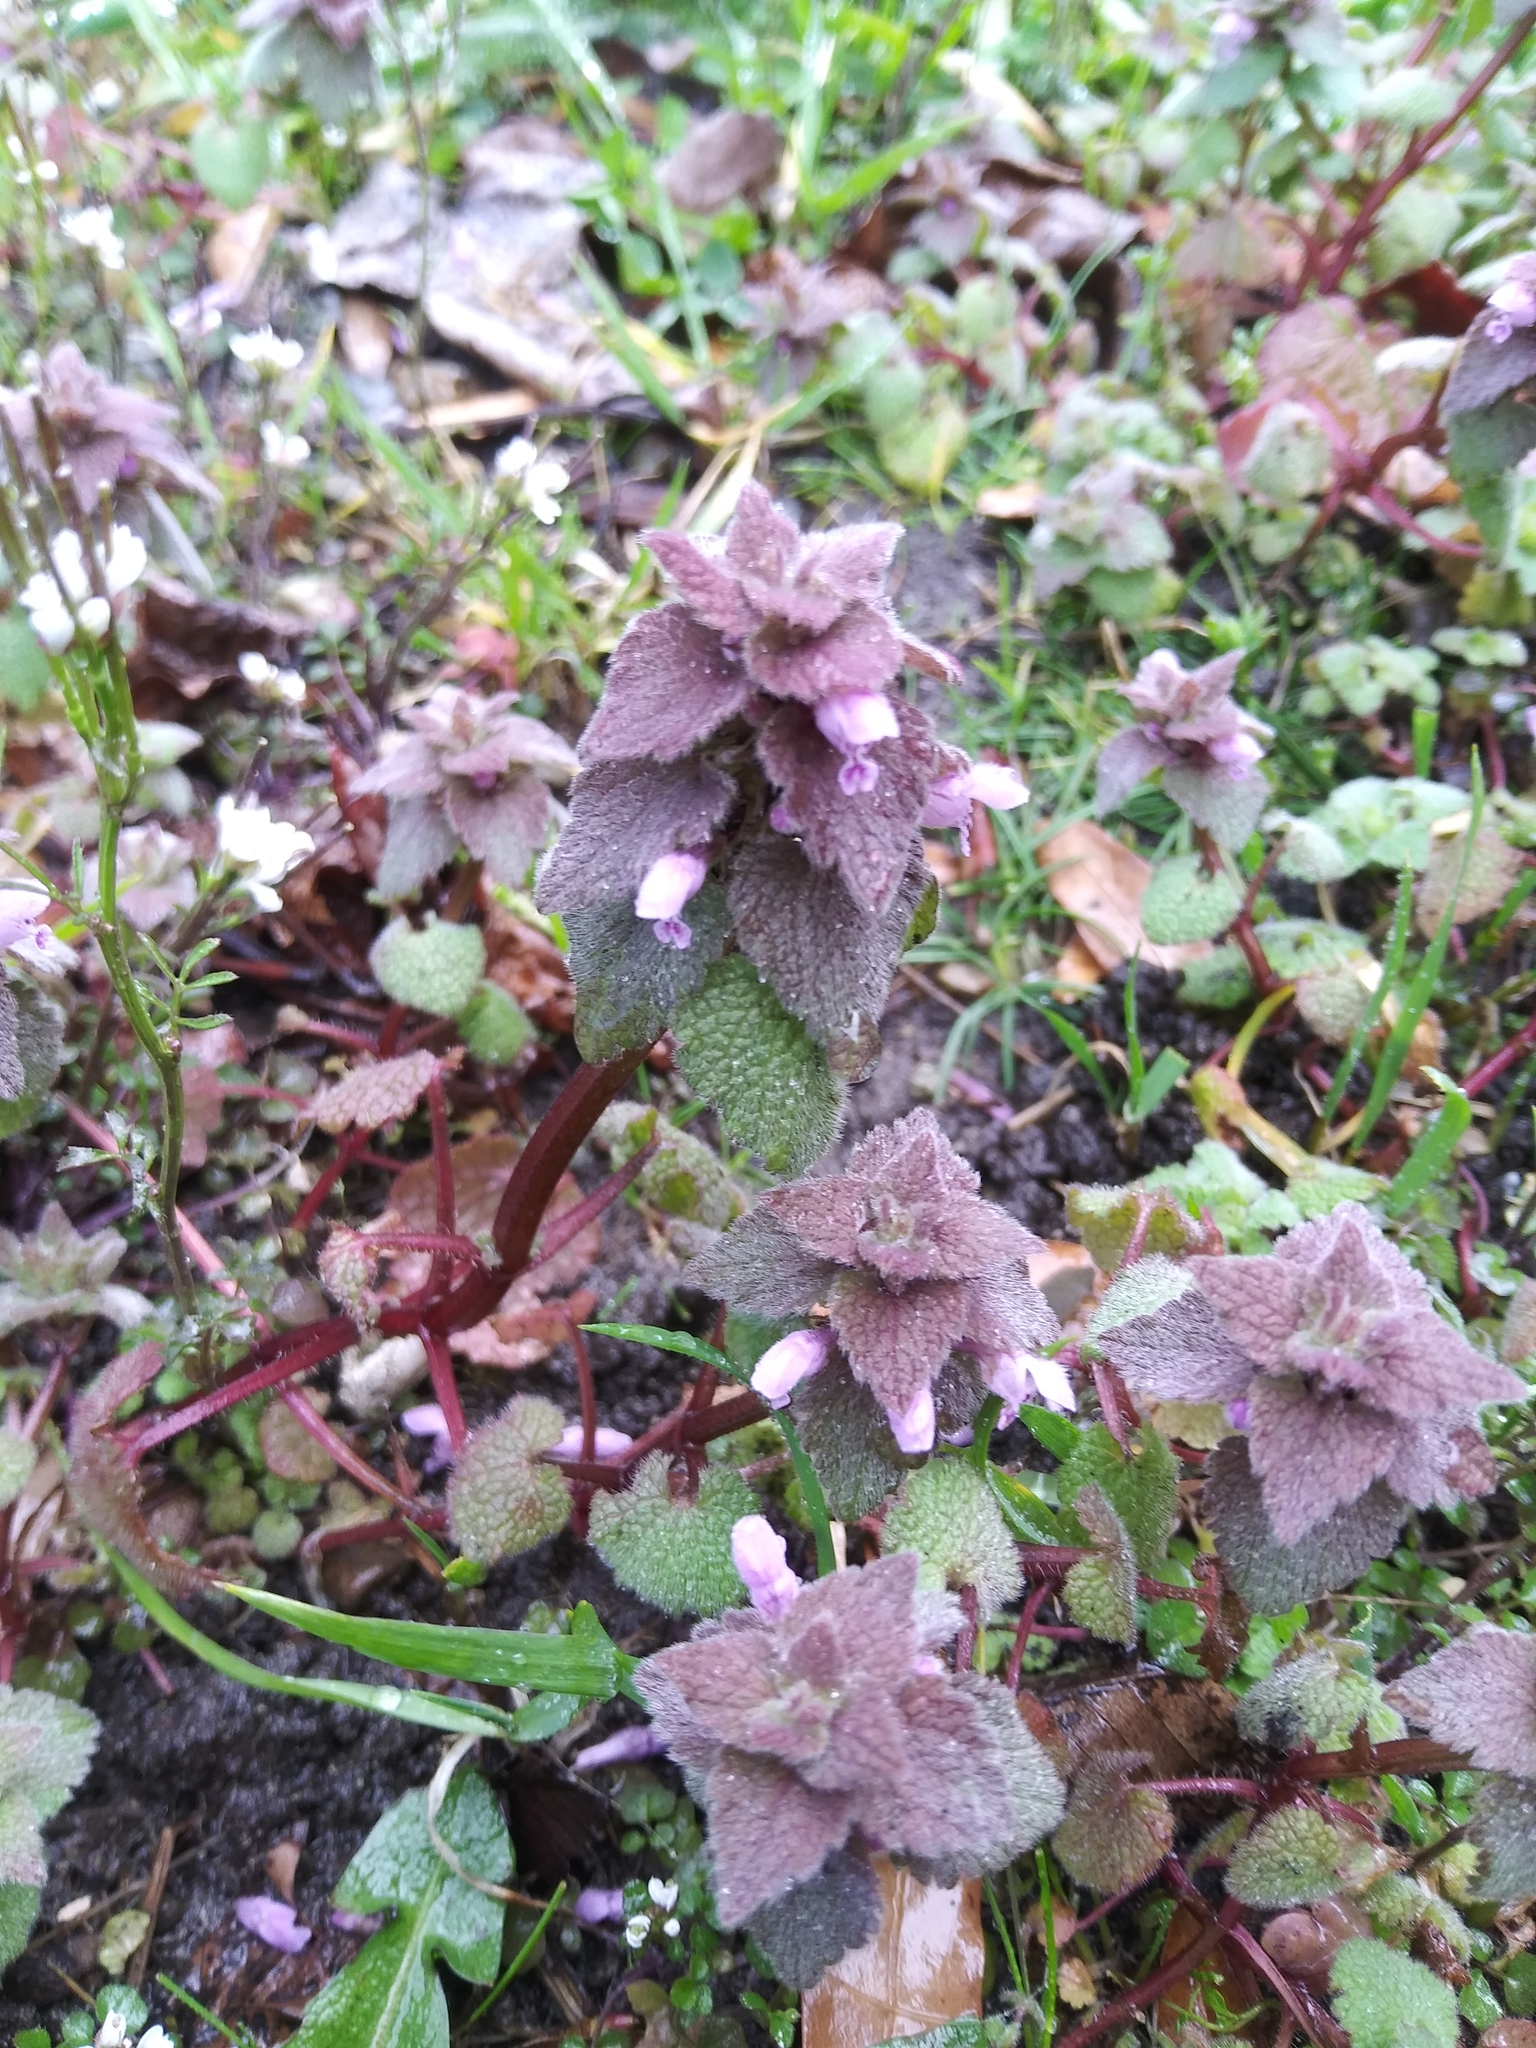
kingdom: Plantae
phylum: Tracheophyta
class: Magnoliopsida
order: Lamiales
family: Lamiaceae
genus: Lamium
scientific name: Lamium purpureum
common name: Red dead-nettle
